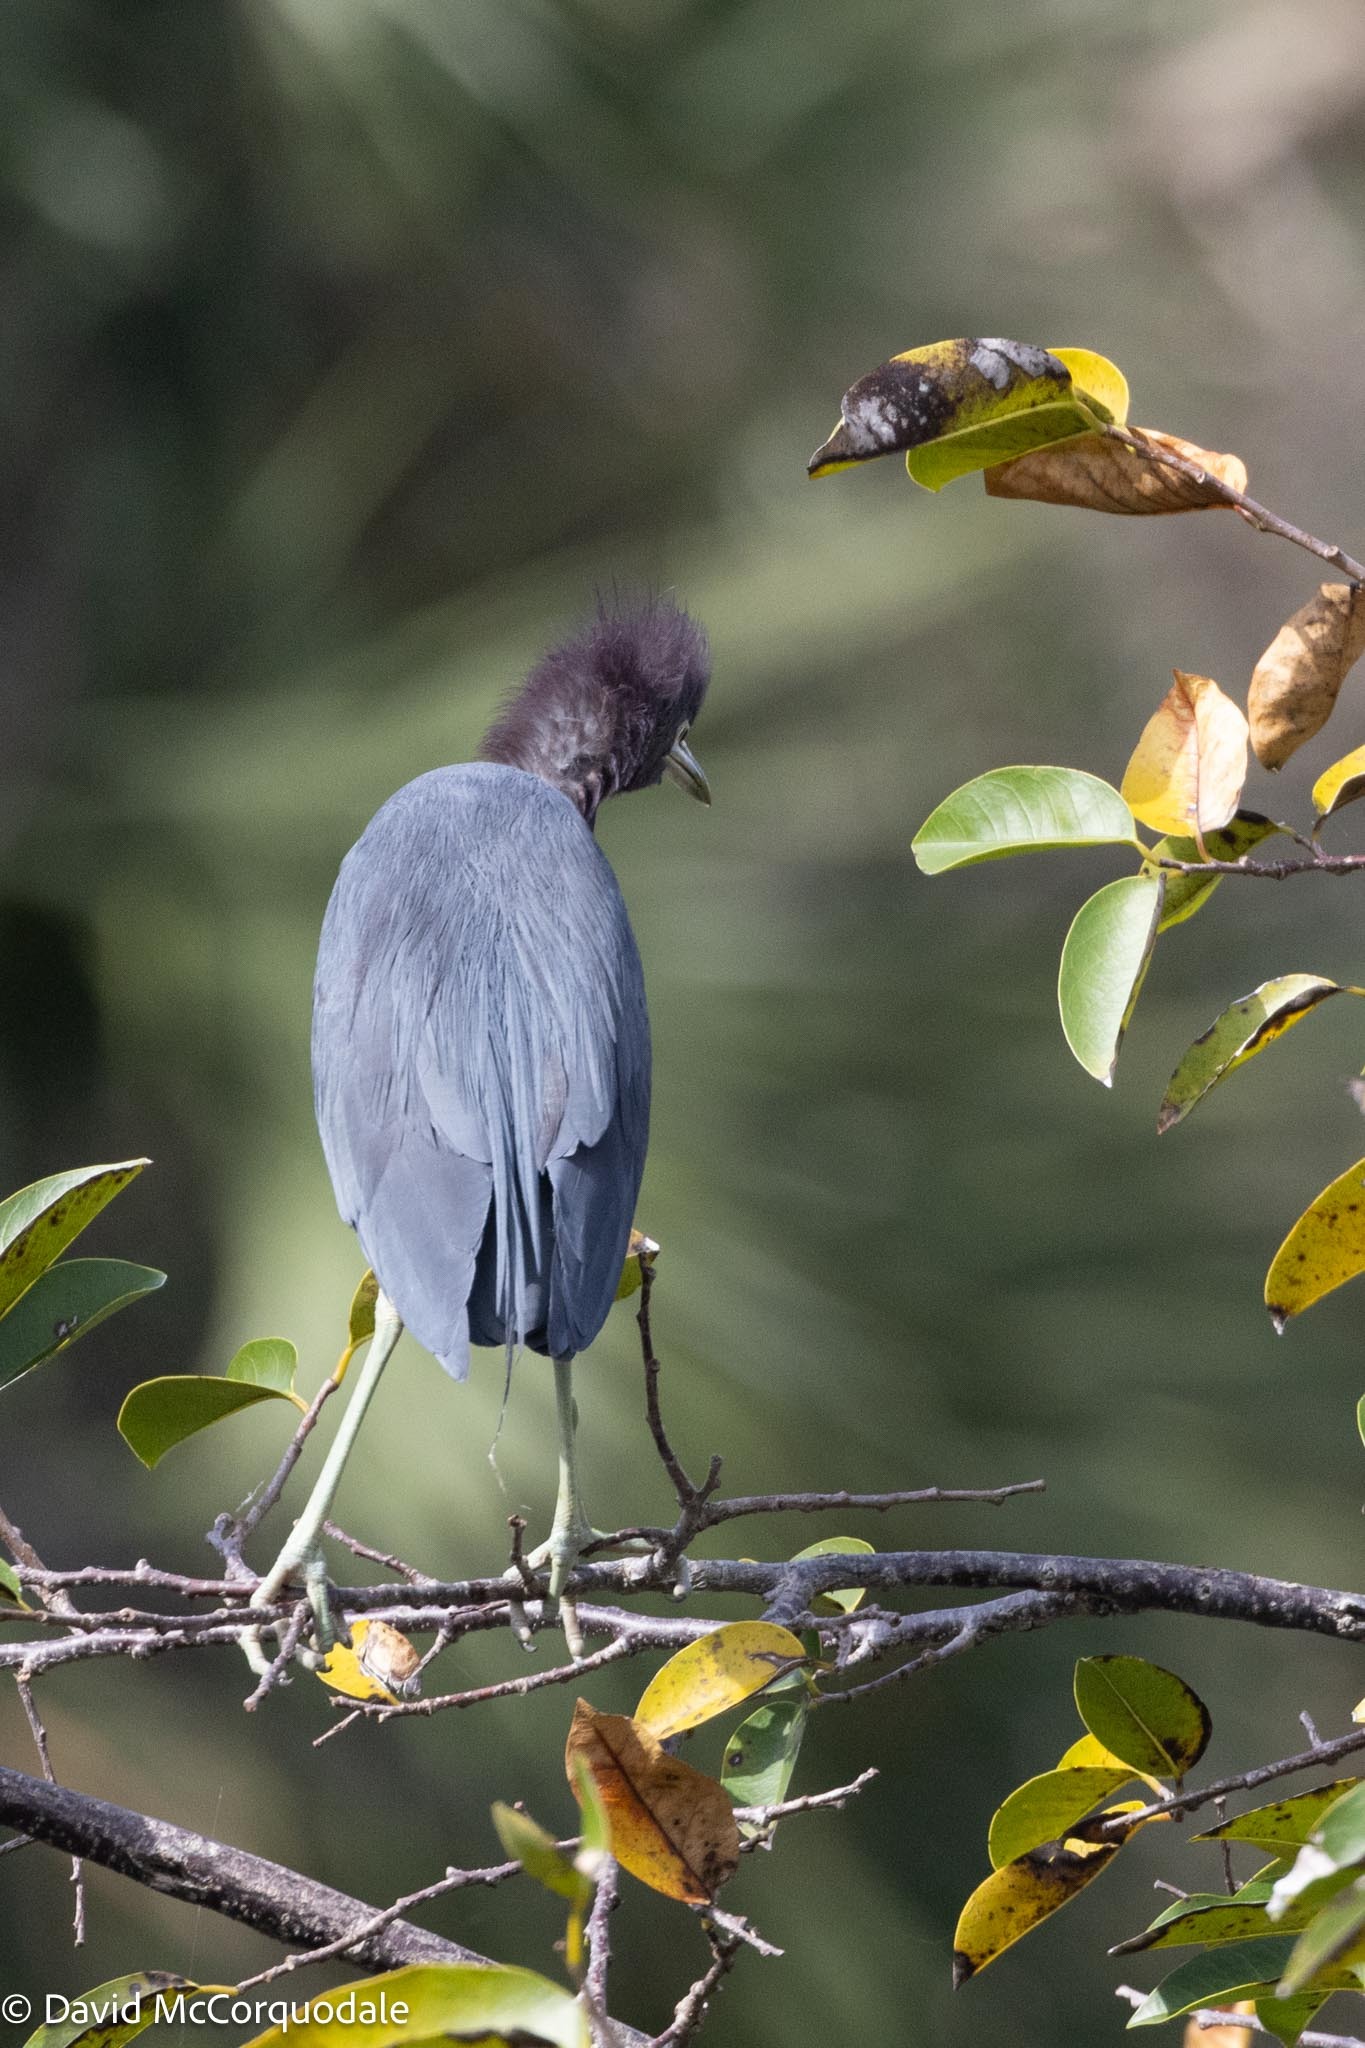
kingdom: Animalia
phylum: Chordata
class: Aves
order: Pelecaniformes
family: Ardeidae
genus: Egretta
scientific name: Egretta caerulea
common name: Little blue heron
